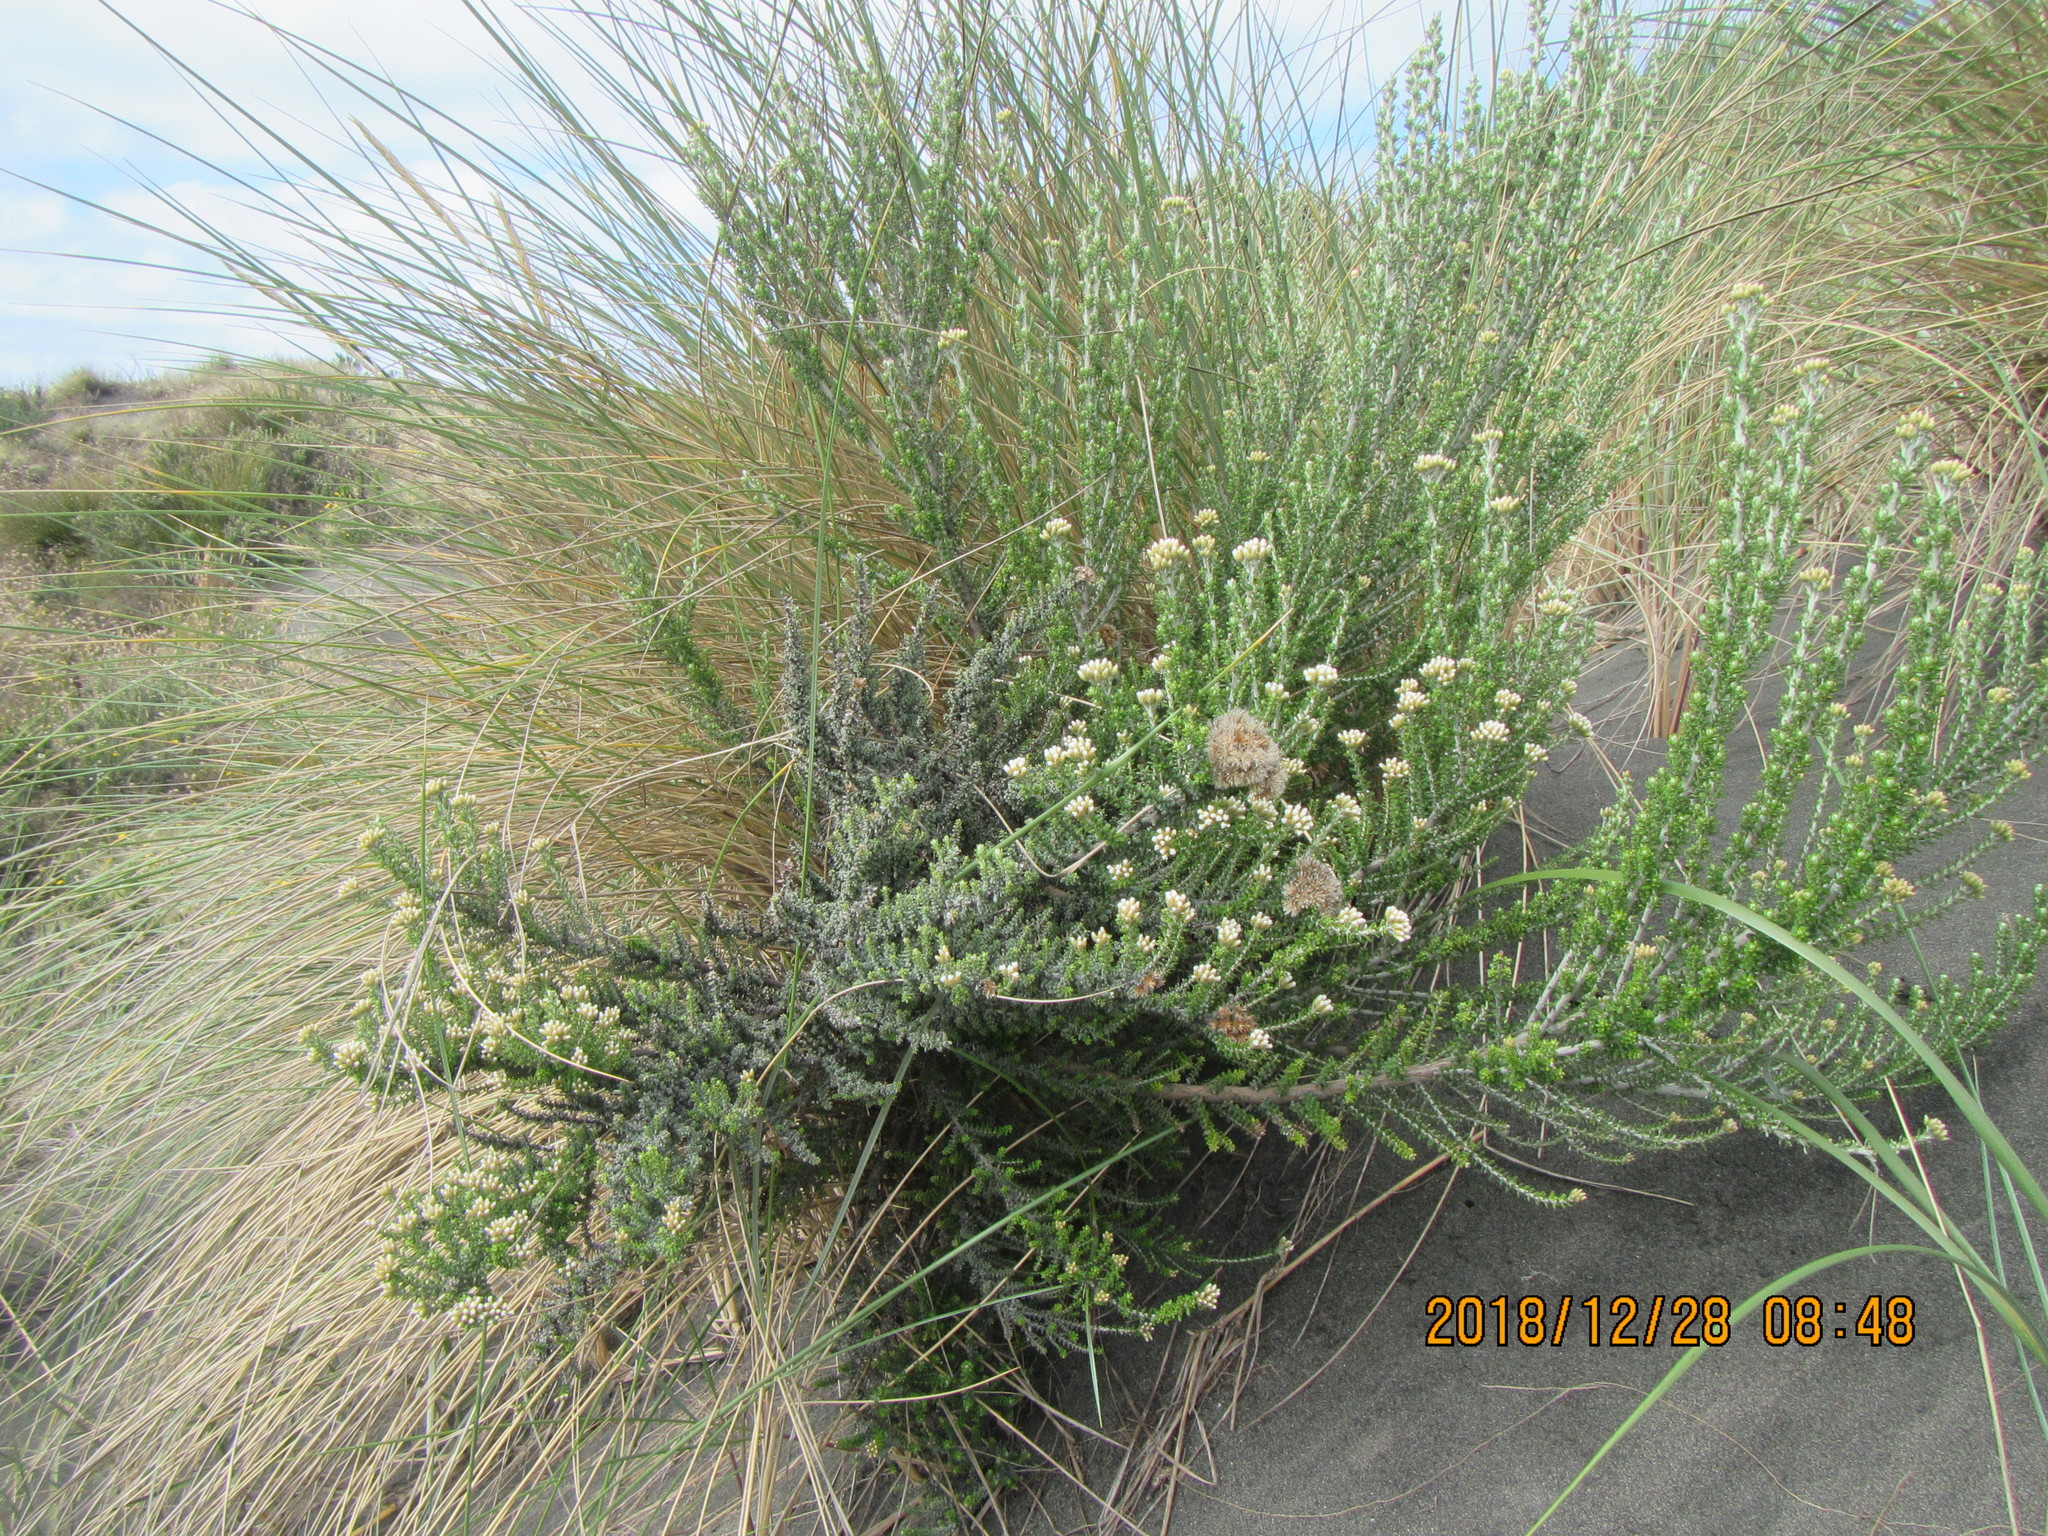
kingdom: Plantae
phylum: Tracheophyta
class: Magnoliopsida
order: Asterales
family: Asteraceae
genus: Ozothamnus
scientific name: Ozothamnus leptophyllus
